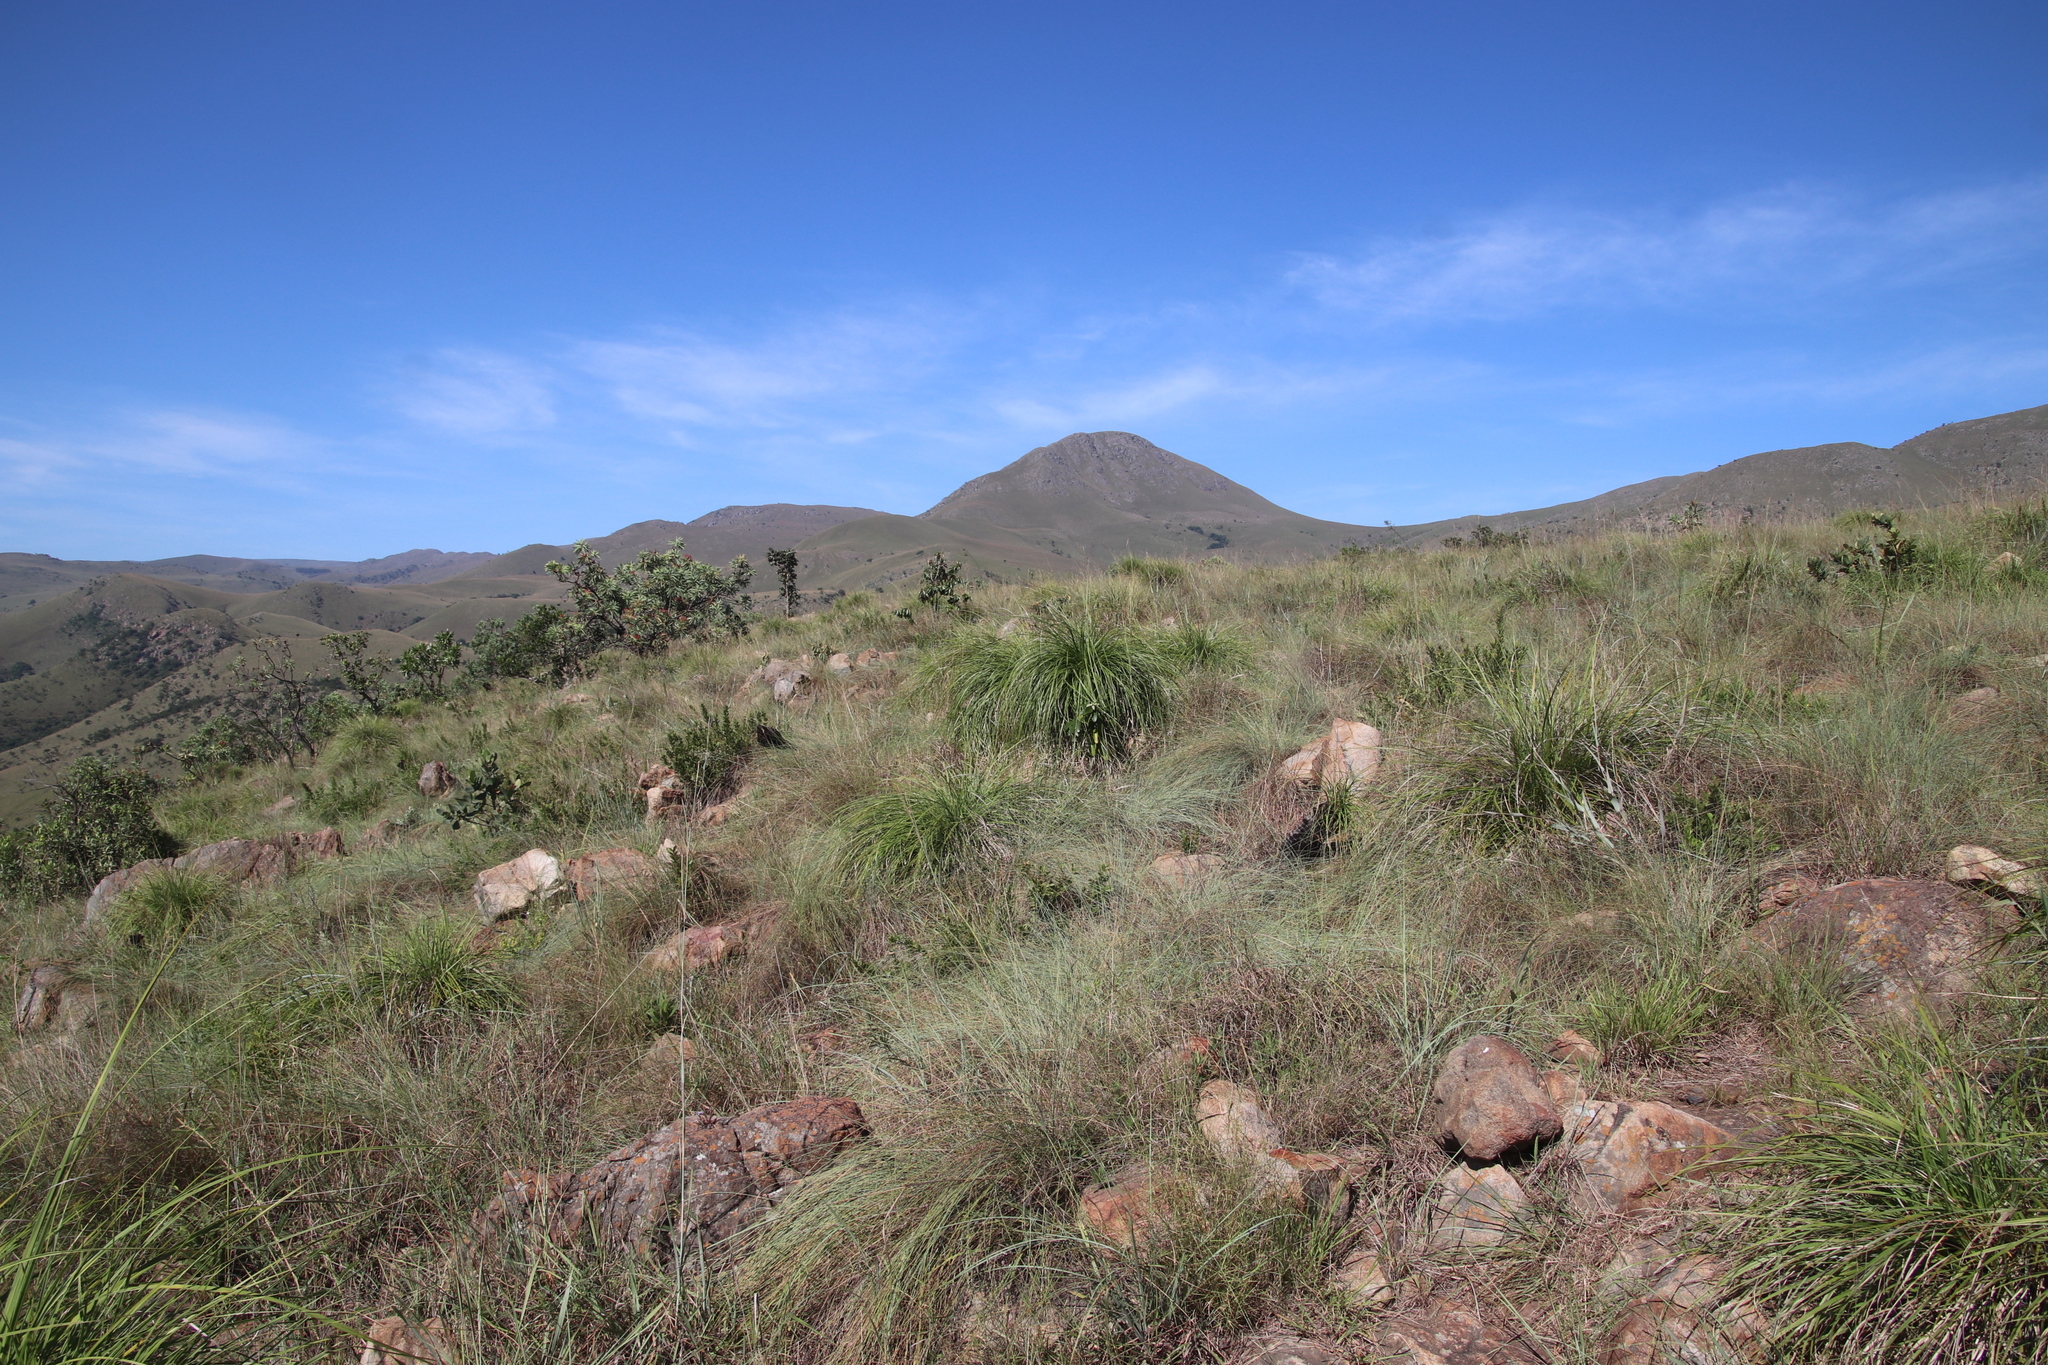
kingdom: Plantae
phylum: Tracheophyta
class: Liliopsida
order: Pandanales
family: Velloziaceae
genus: Xerophyta
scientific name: Xerophyta retinervis
